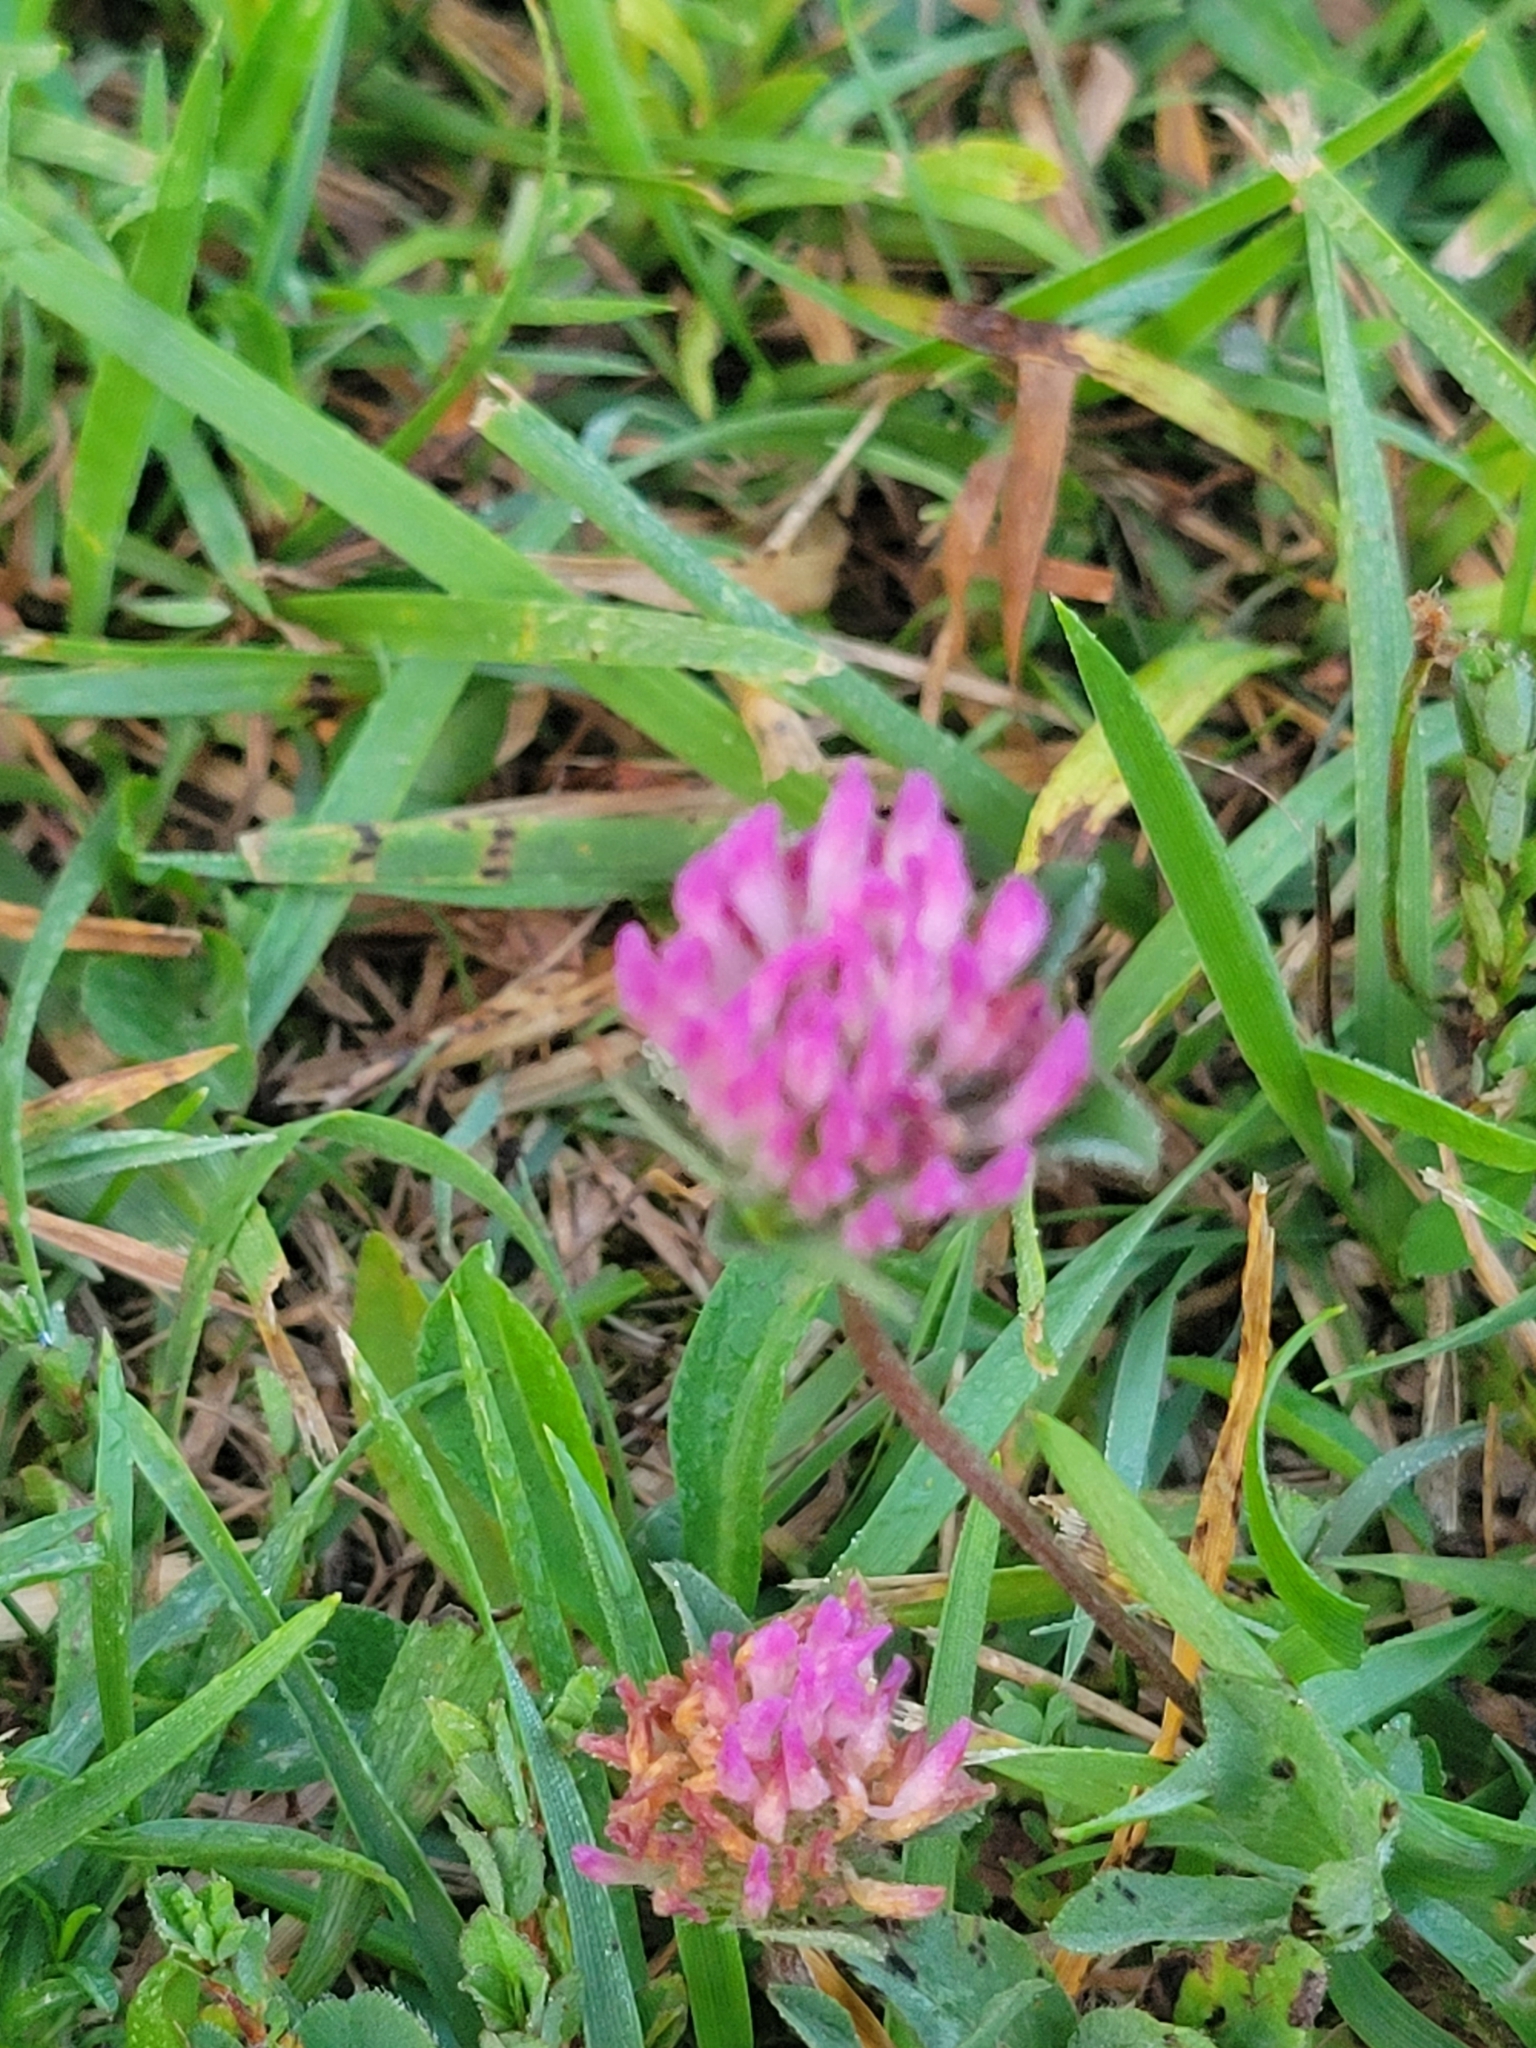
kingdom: Plantae
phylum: Tracheophyta
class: Magnoliopsida
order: Fabales
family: Fabaceae
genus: Trifolium
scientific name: Trifolium pratense
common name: Red clover
